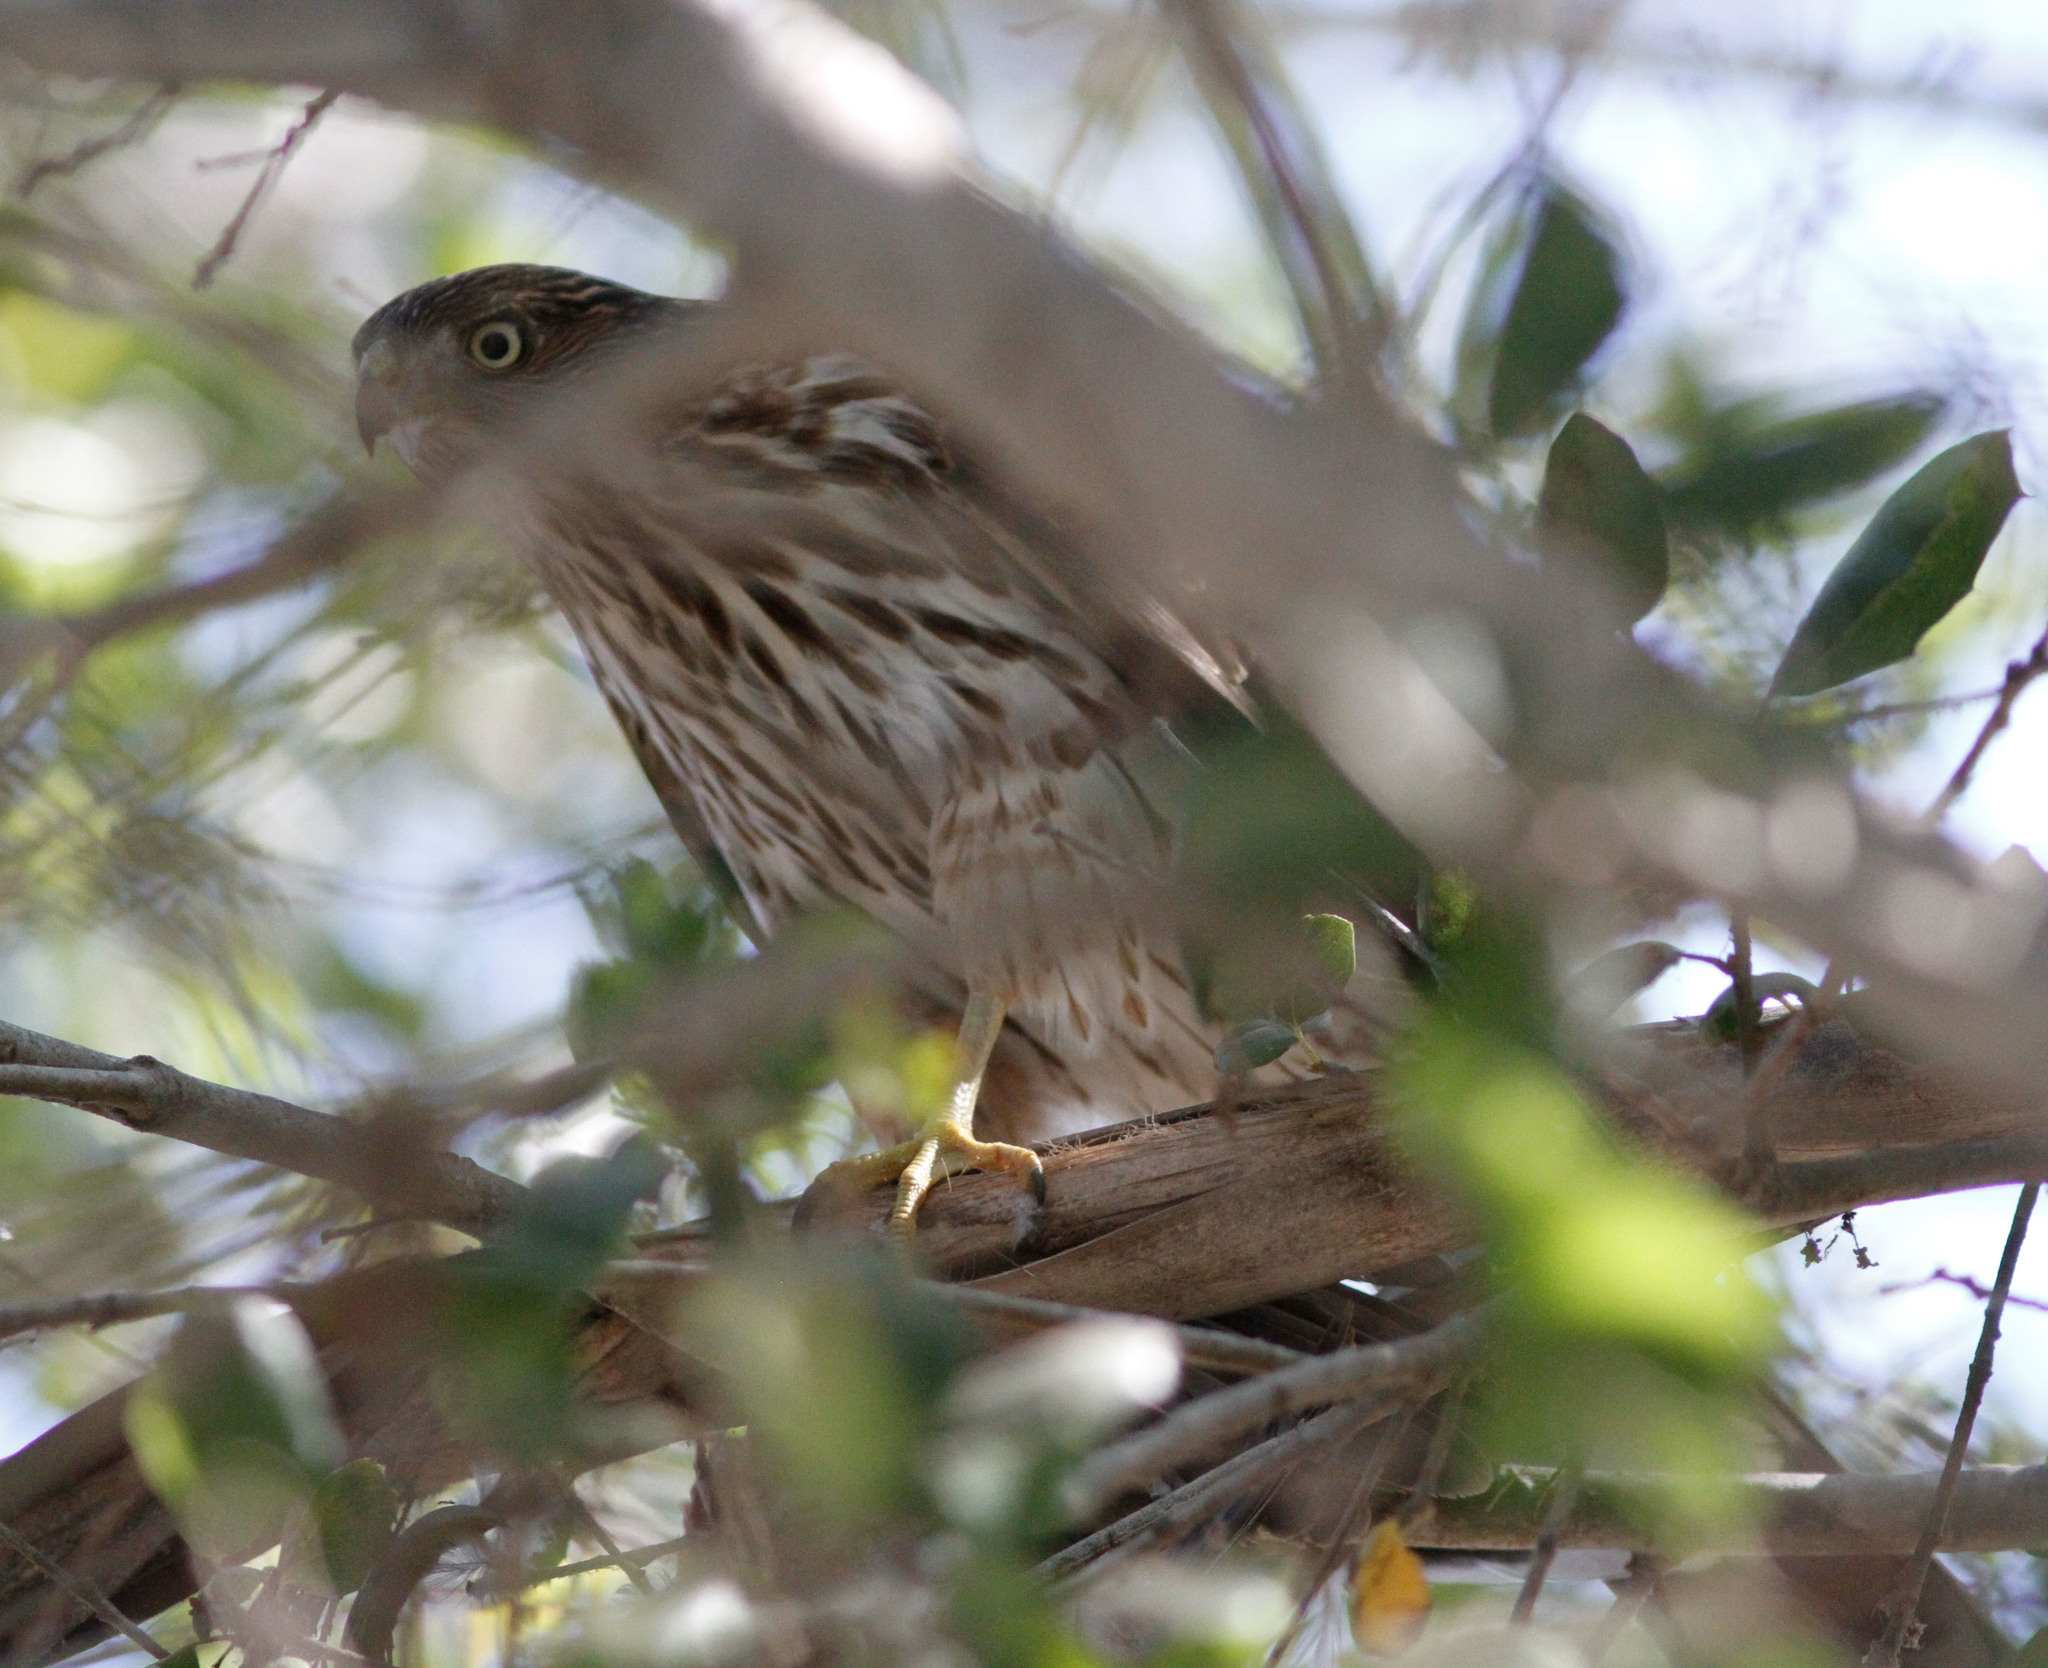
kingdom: Animalia
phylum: Chordata
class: Aves
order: Accipitriformes
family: Accipitridae
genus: Accipiter
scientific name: Accipiter cooperii
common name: Cooper's hawk
